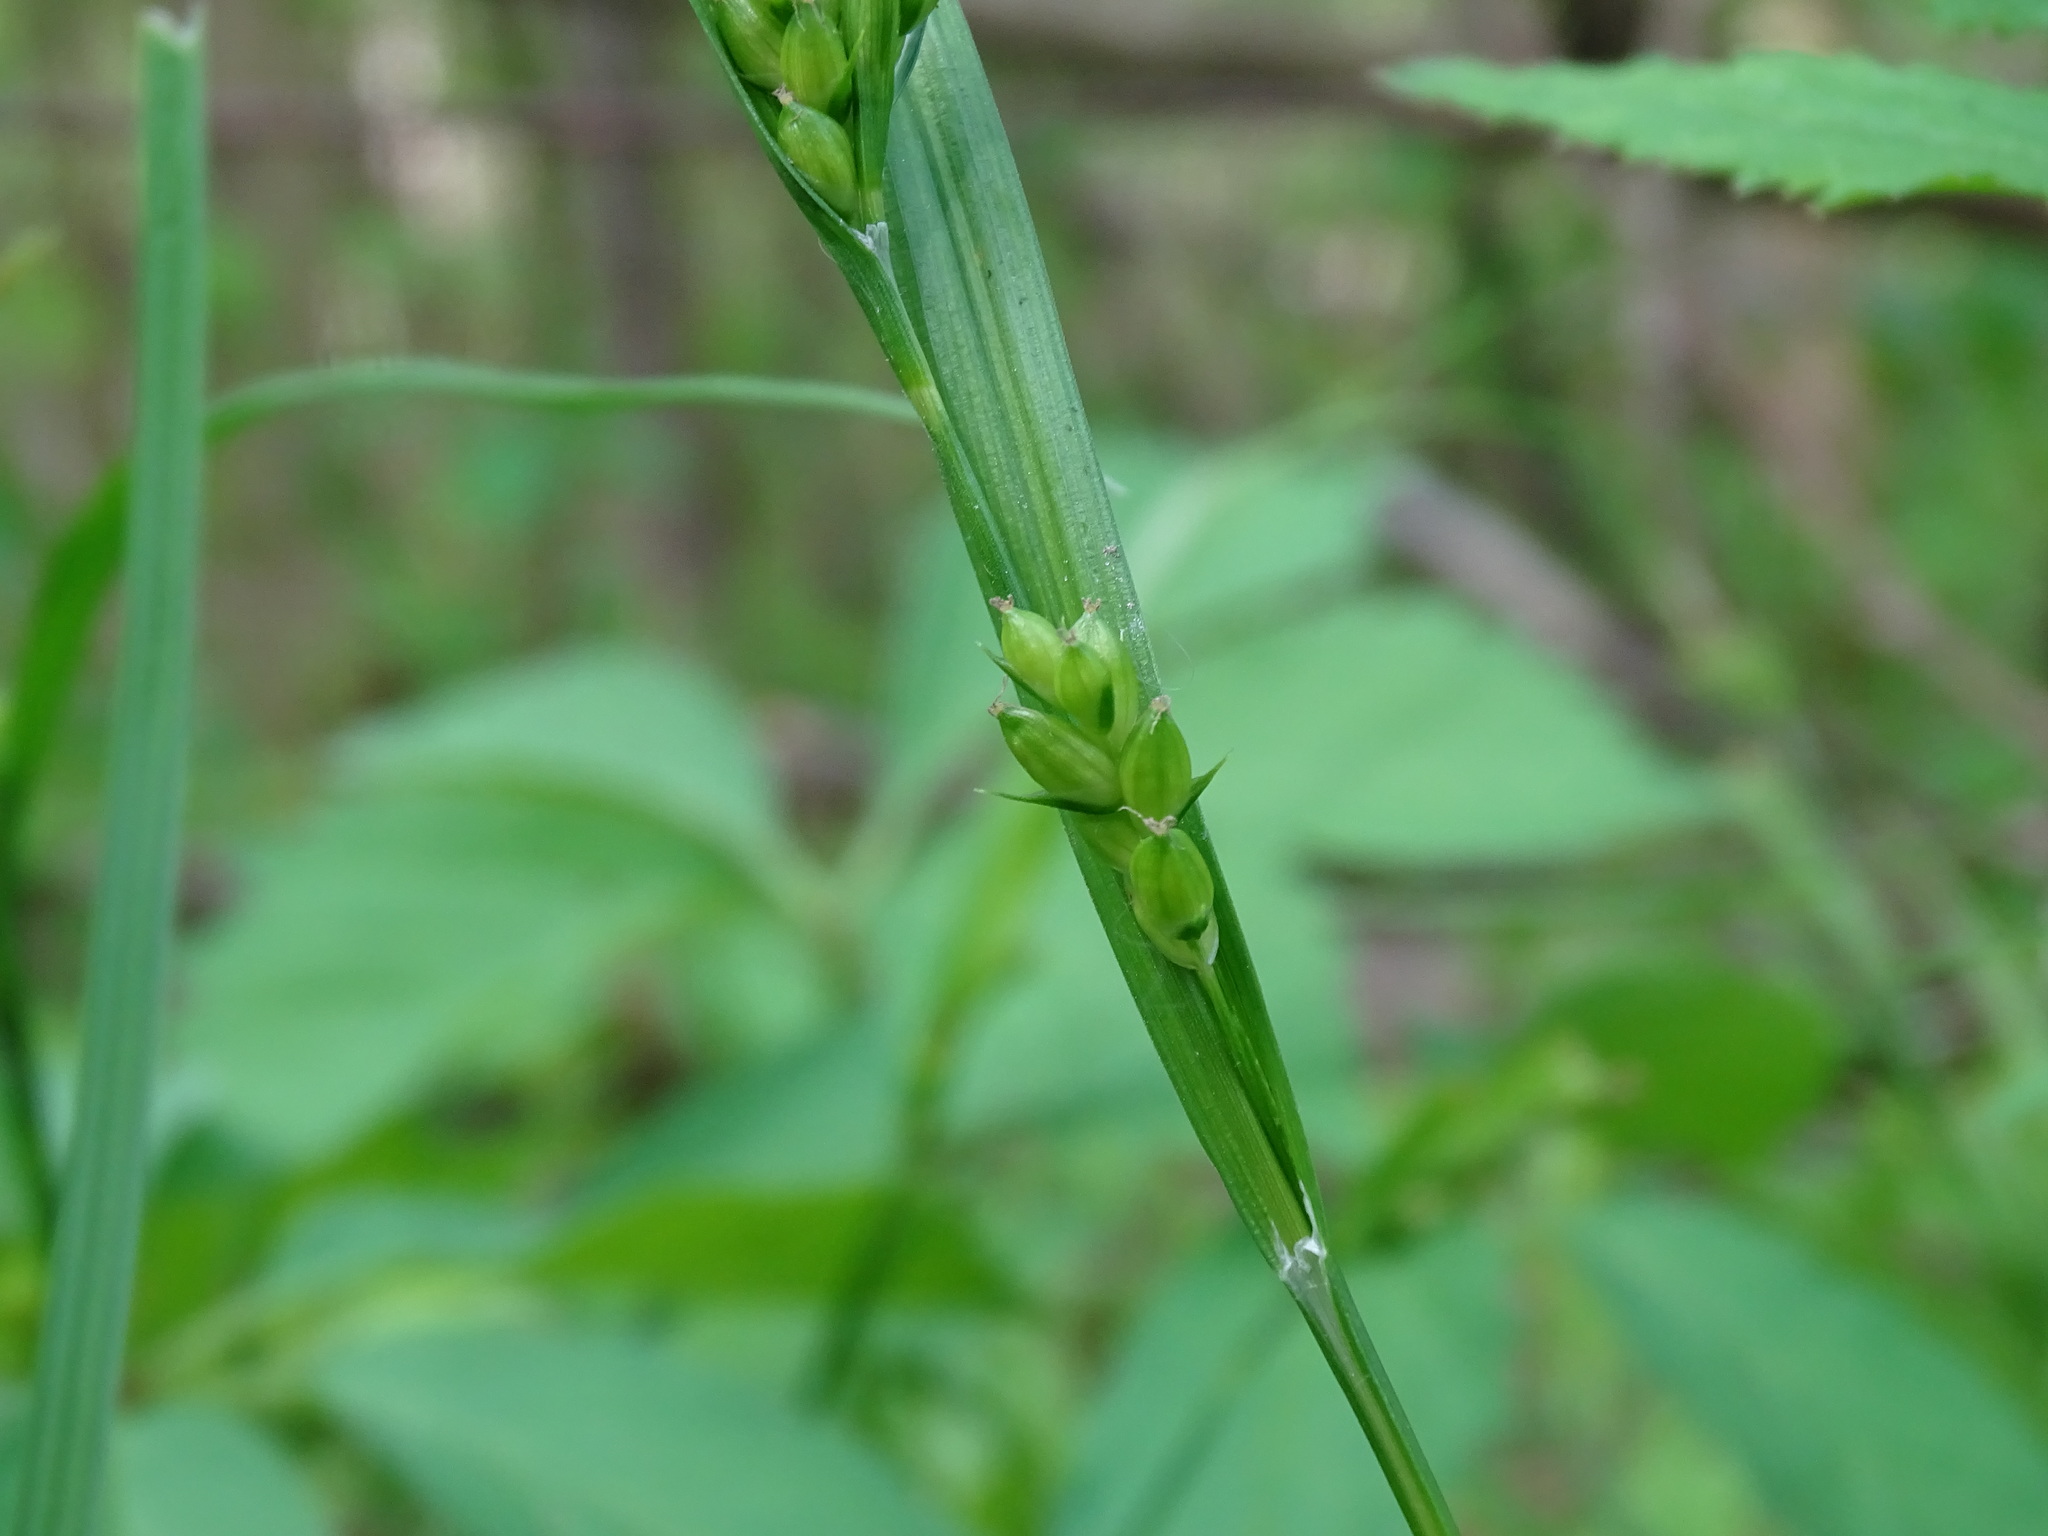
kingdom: Plantae
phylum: Tracheophyta
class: Liliopsida
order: Poales
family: Cyperaceae
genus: Carex
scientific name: Carex grisea
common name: Eastern narrow-leaved sedge
